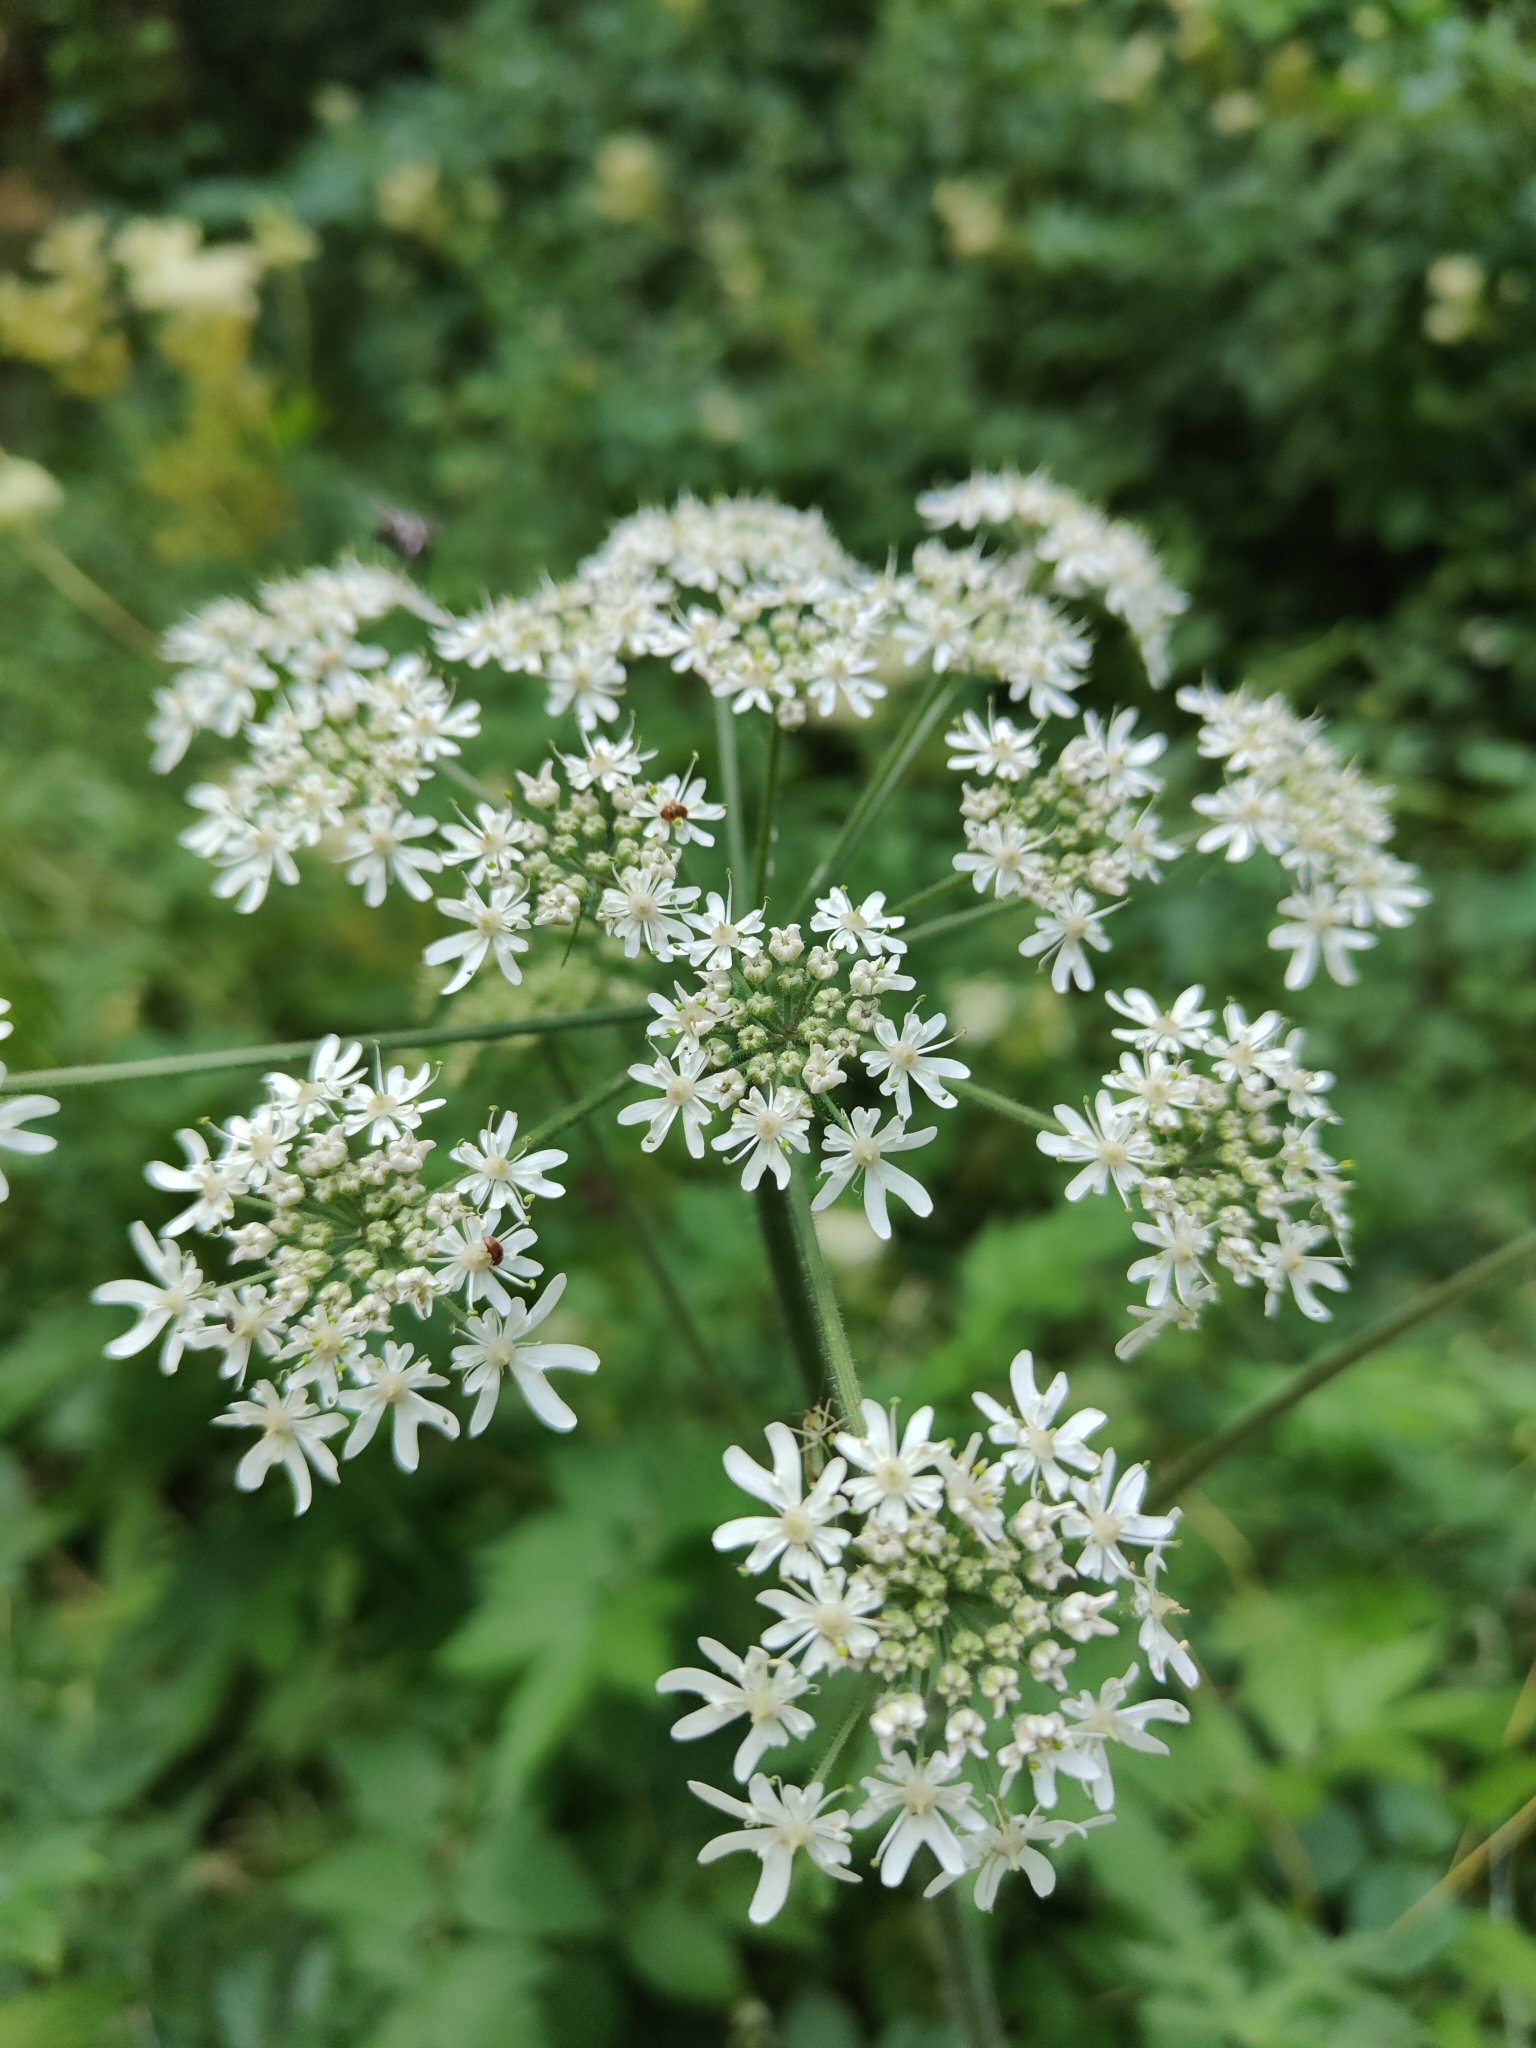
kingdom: Plantae
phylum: Tracheophyta
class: Magnoliopsida
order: Apiales
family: Apiaceae
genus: Heracleum
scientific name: Heracleum sphondylium
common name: Hogweed
